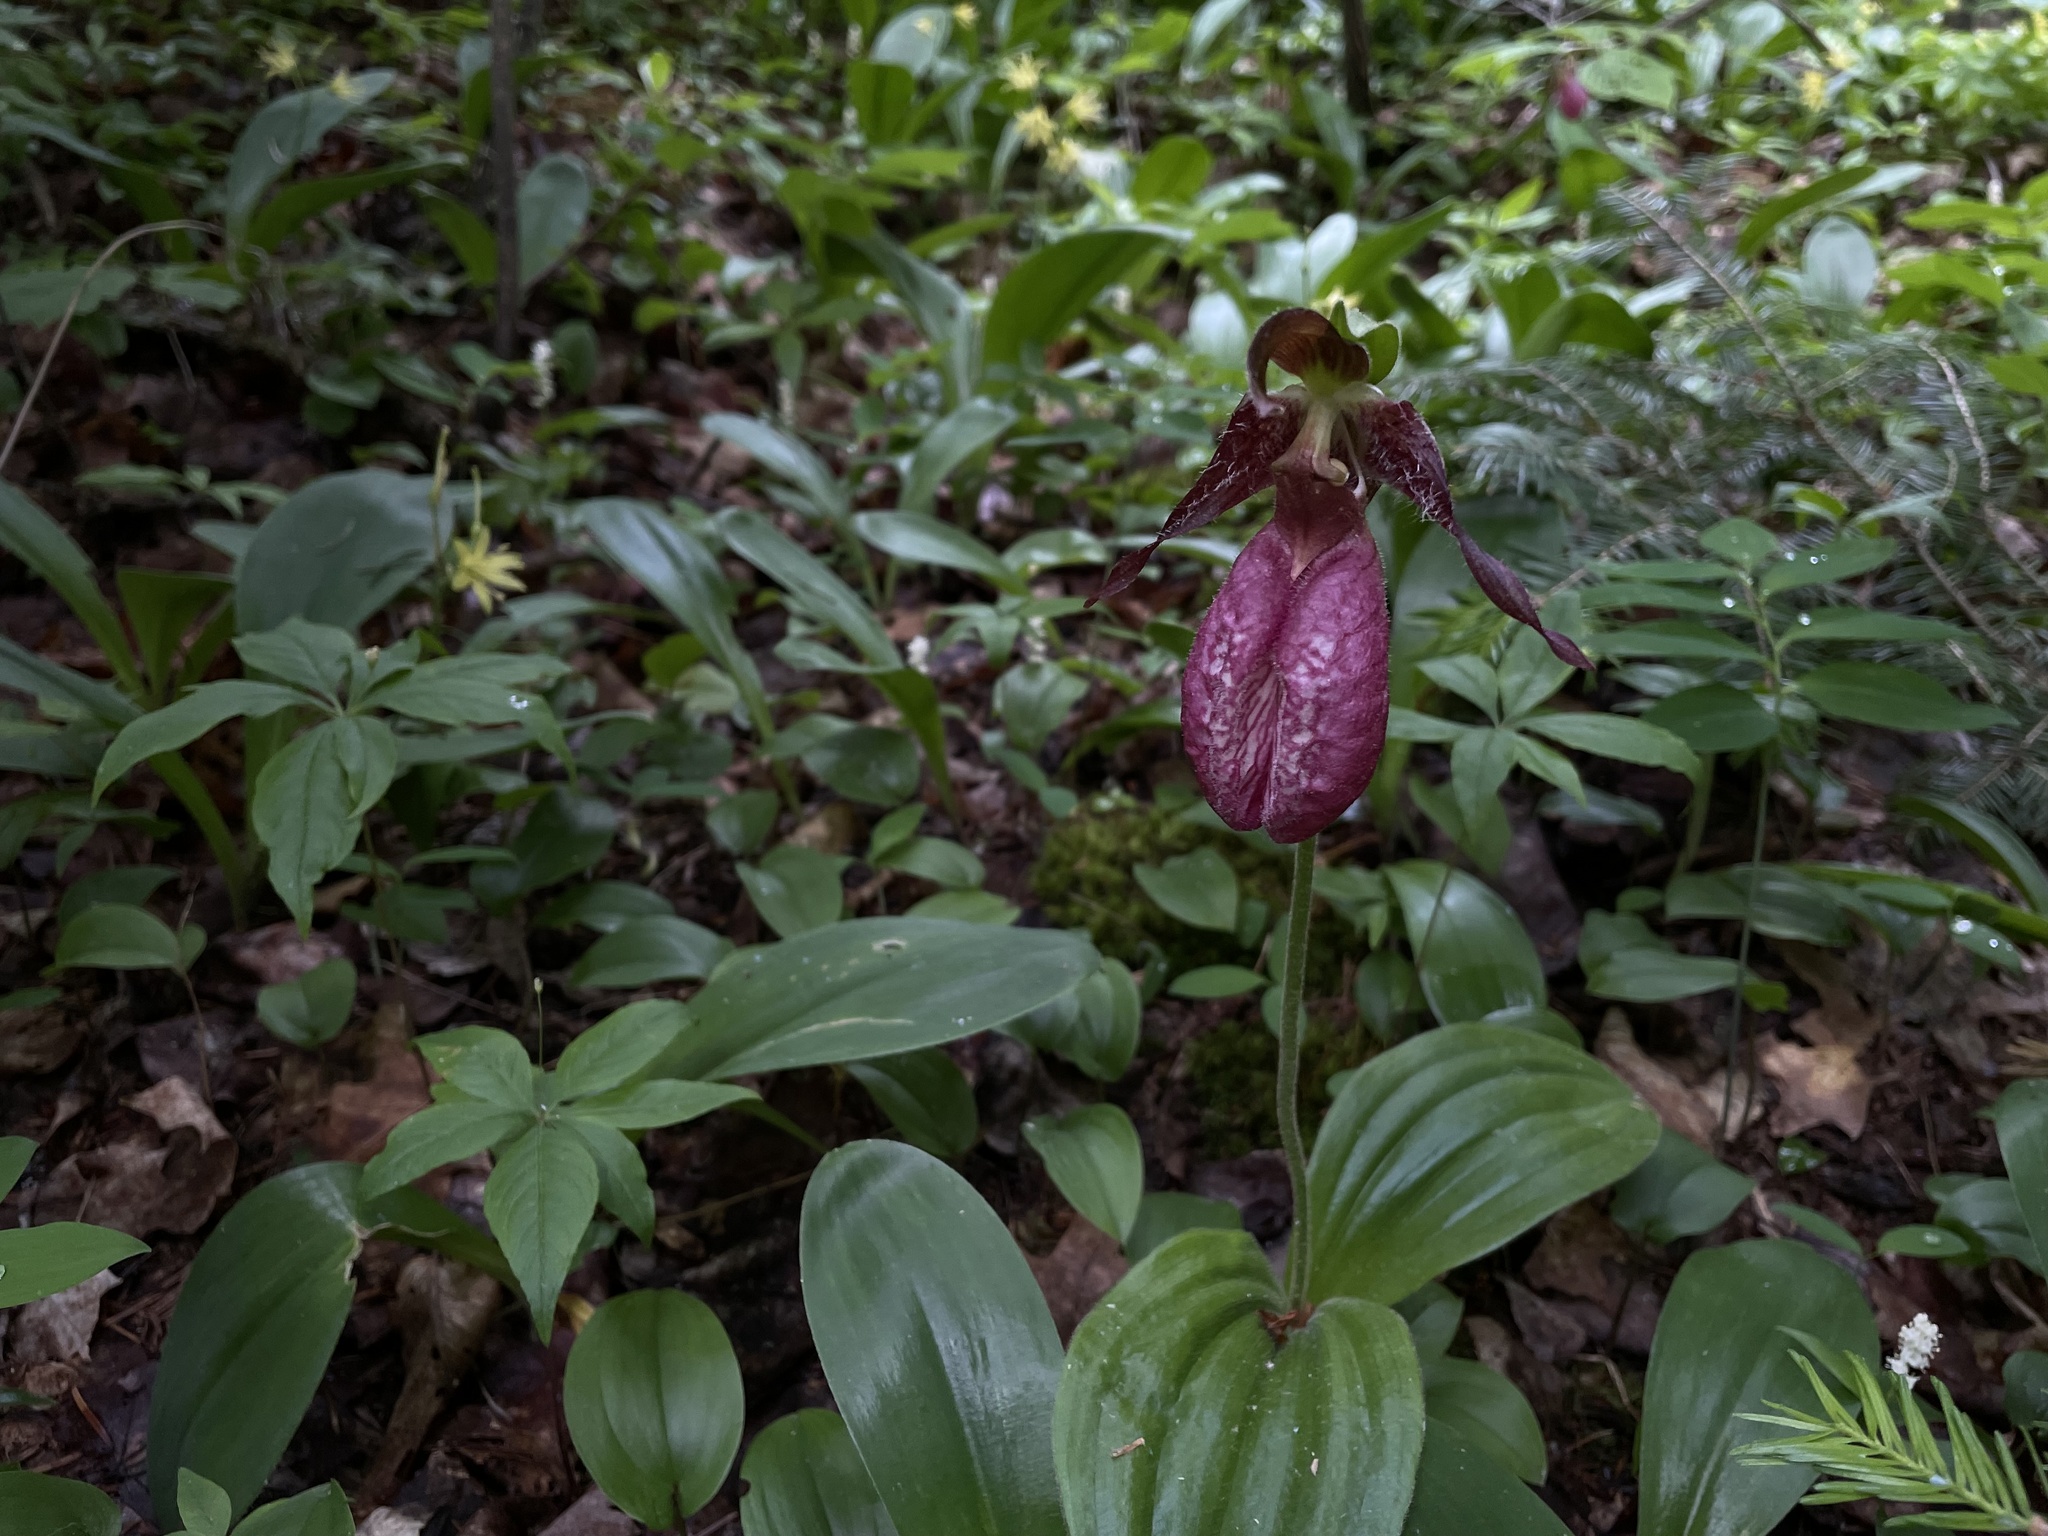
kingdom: Plantae
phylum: Tracheophyta
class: Liliopsida
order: Asparagales
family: Orchidaceae
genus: Cypripedium
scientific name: Cypripedium acaule
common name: Pink lady's-slipper
